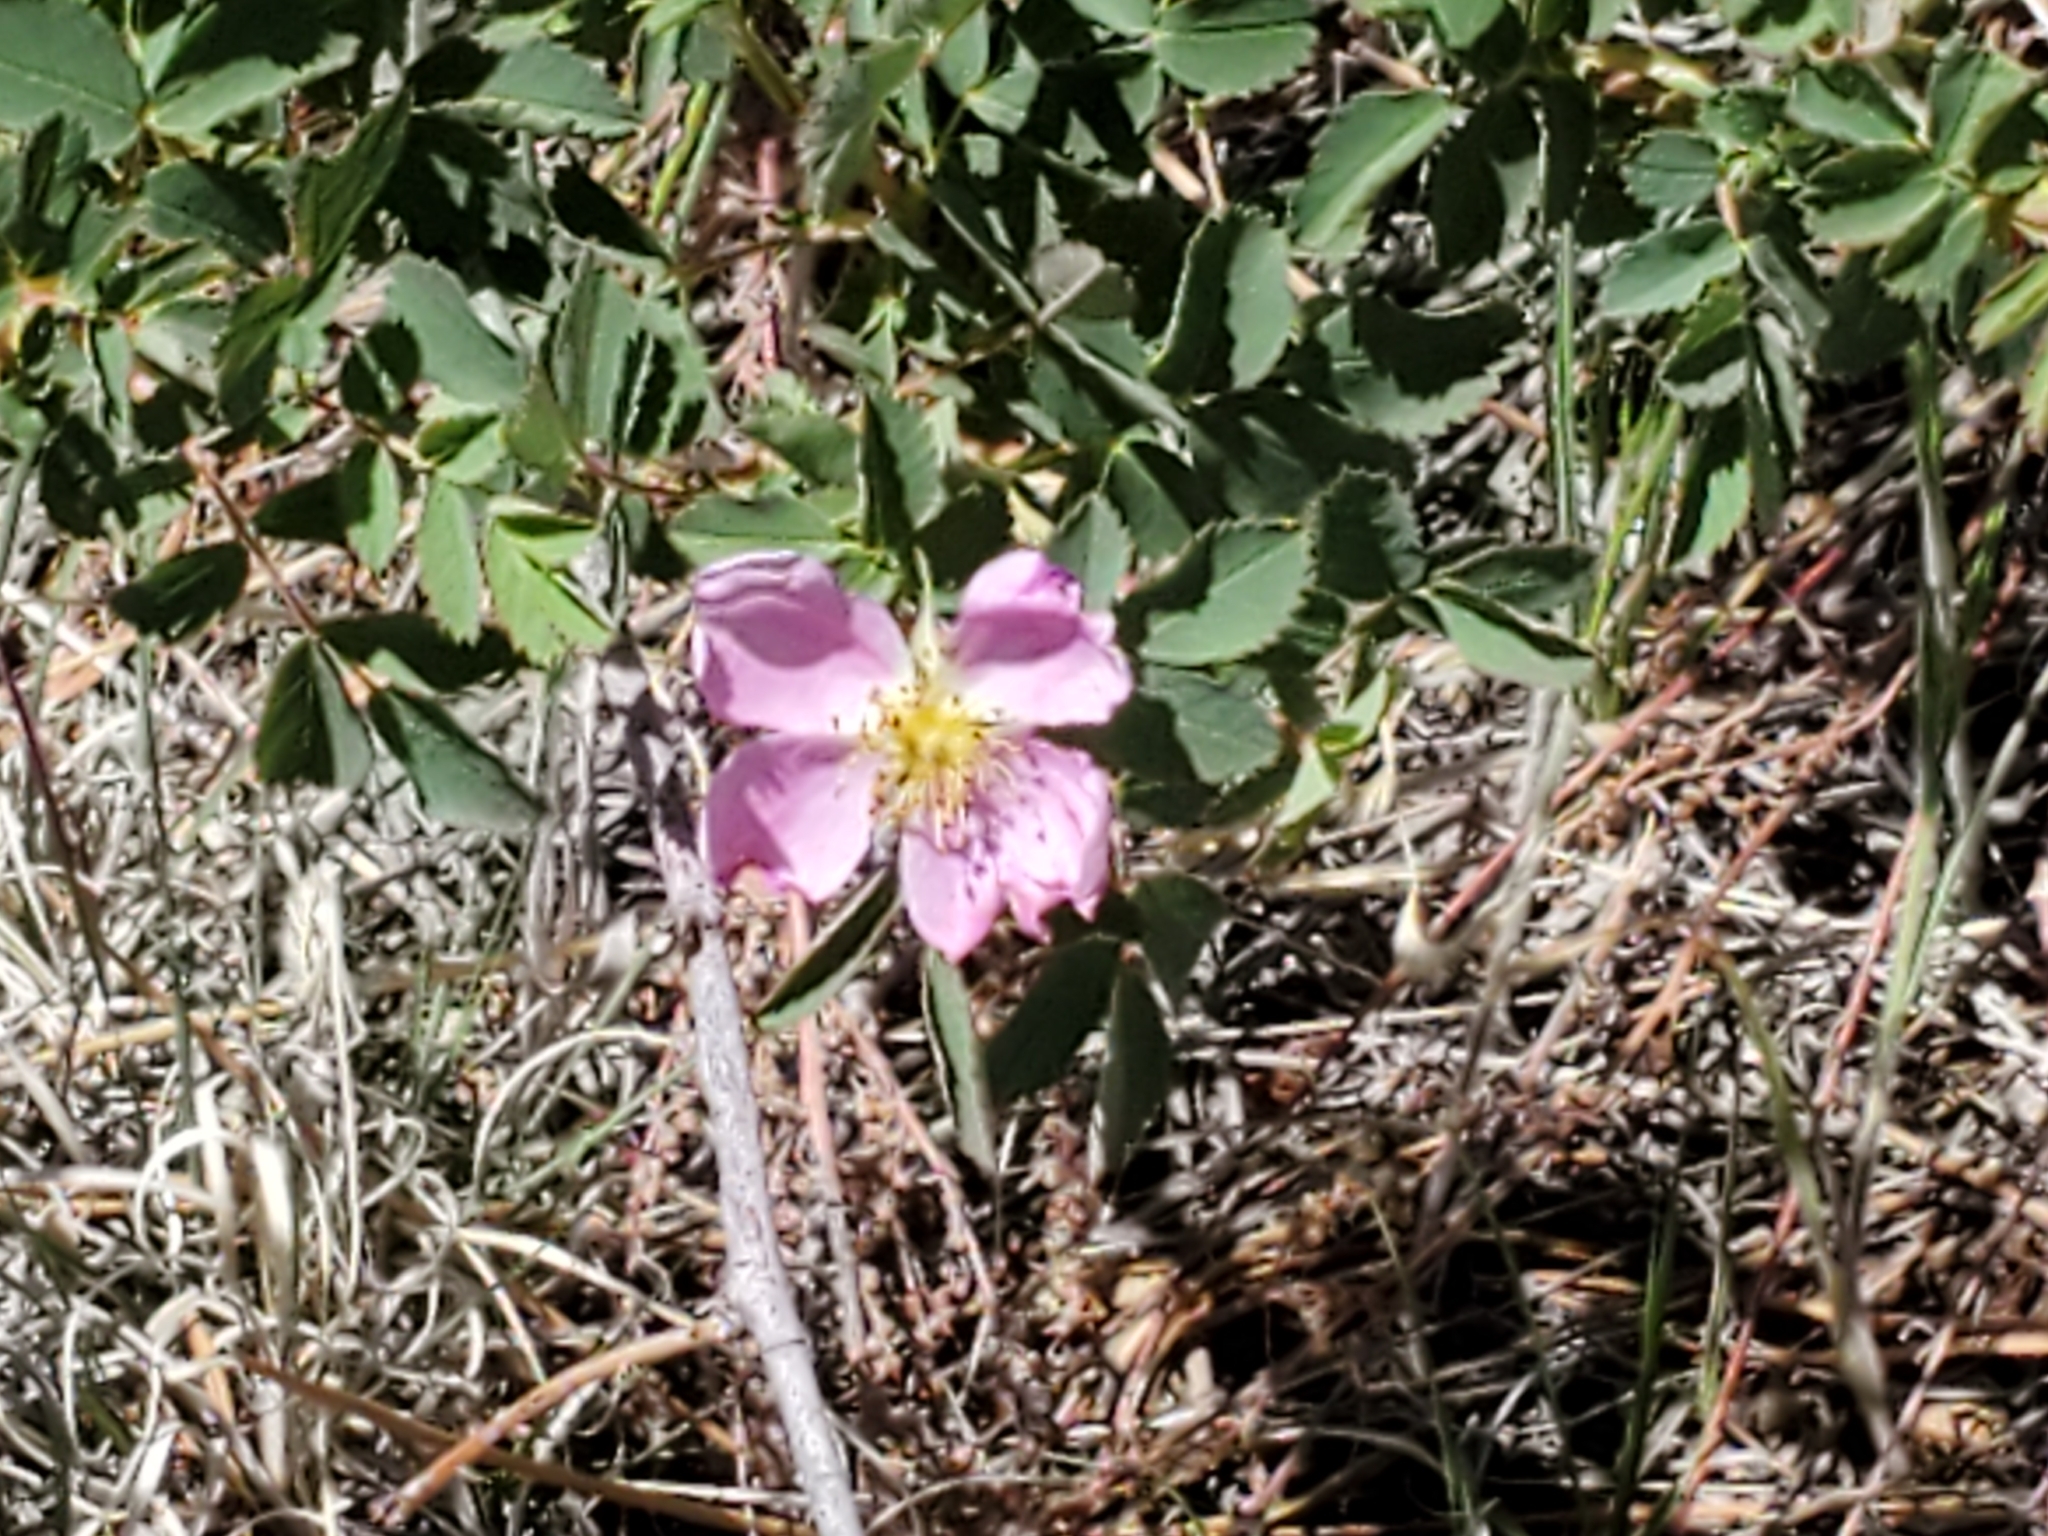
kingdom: Plantae
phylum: Tracheophyta
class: Magnoliopsida
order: Rosales
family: Rosaceae
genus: Rosa
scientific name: Rosa woodsii
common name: Woods's rose
